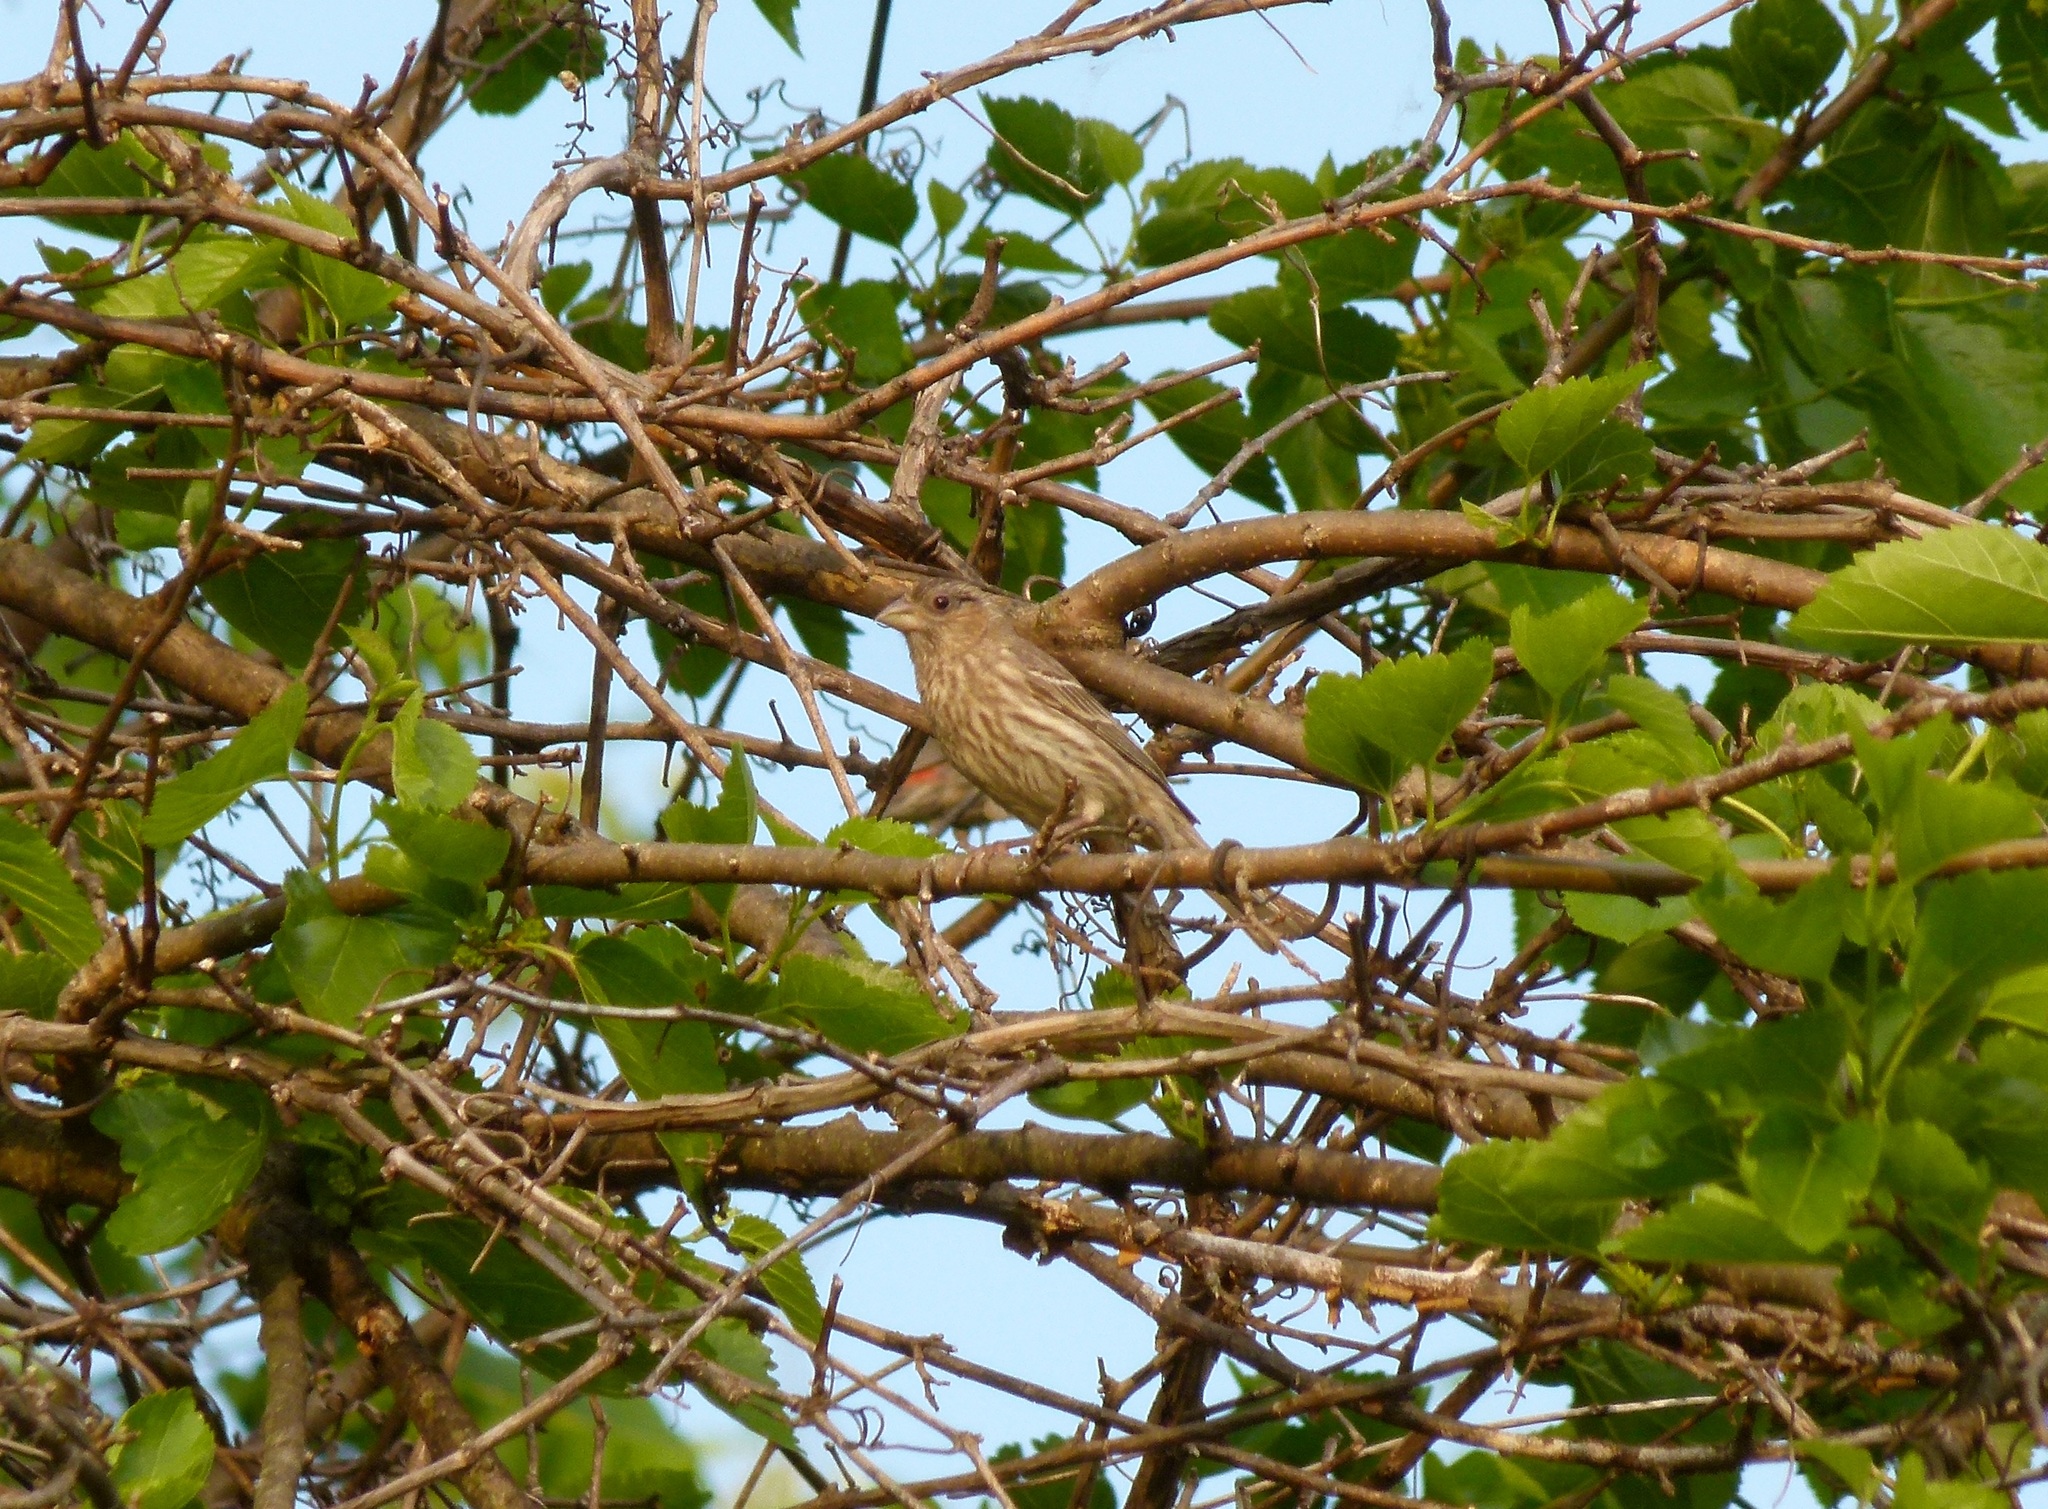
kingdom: Animalia
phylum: Chordata
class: Aves
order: Passeriformes
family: Fringillidae
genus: Haemorhous
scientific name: Haemorhous mexicanus
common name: House finch
